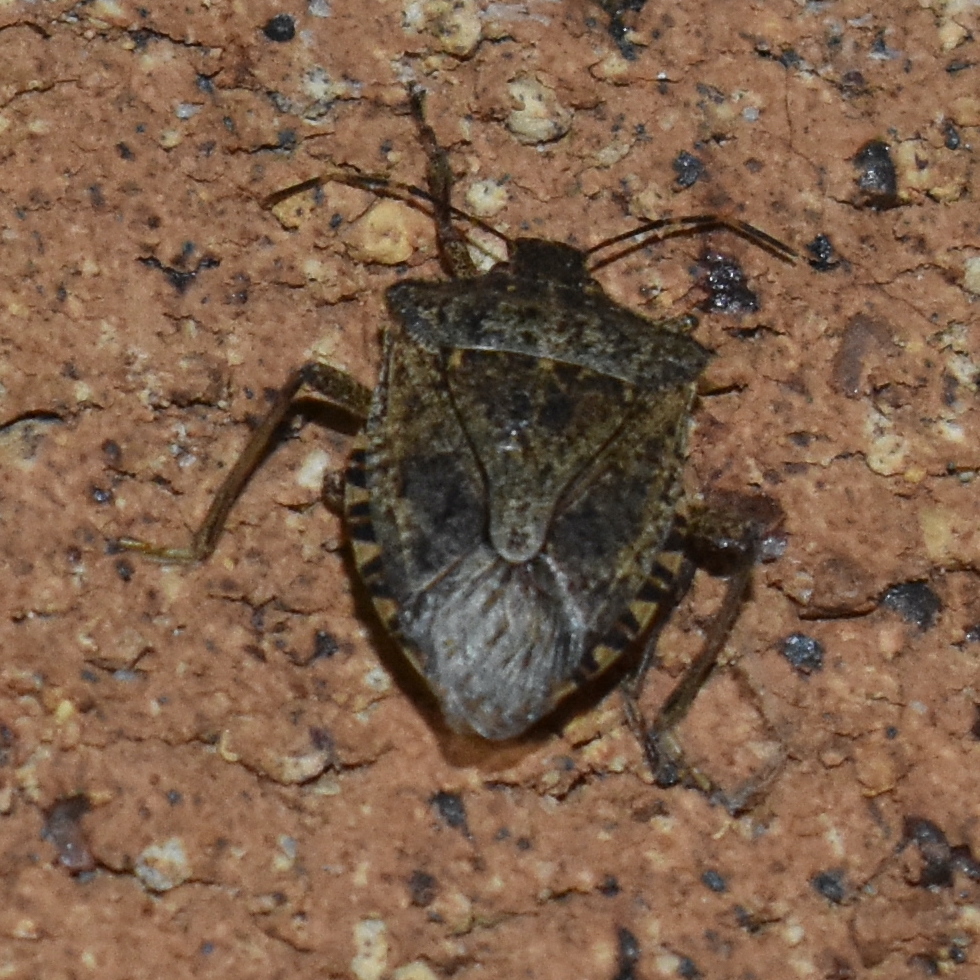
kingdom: Animalia
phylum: Arthropoda
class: Insecta
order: Hemiptera
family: Pentatomidae
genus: Halyomorpha
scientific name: Halyomorpha halys
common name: Brown marmorated stink bug
